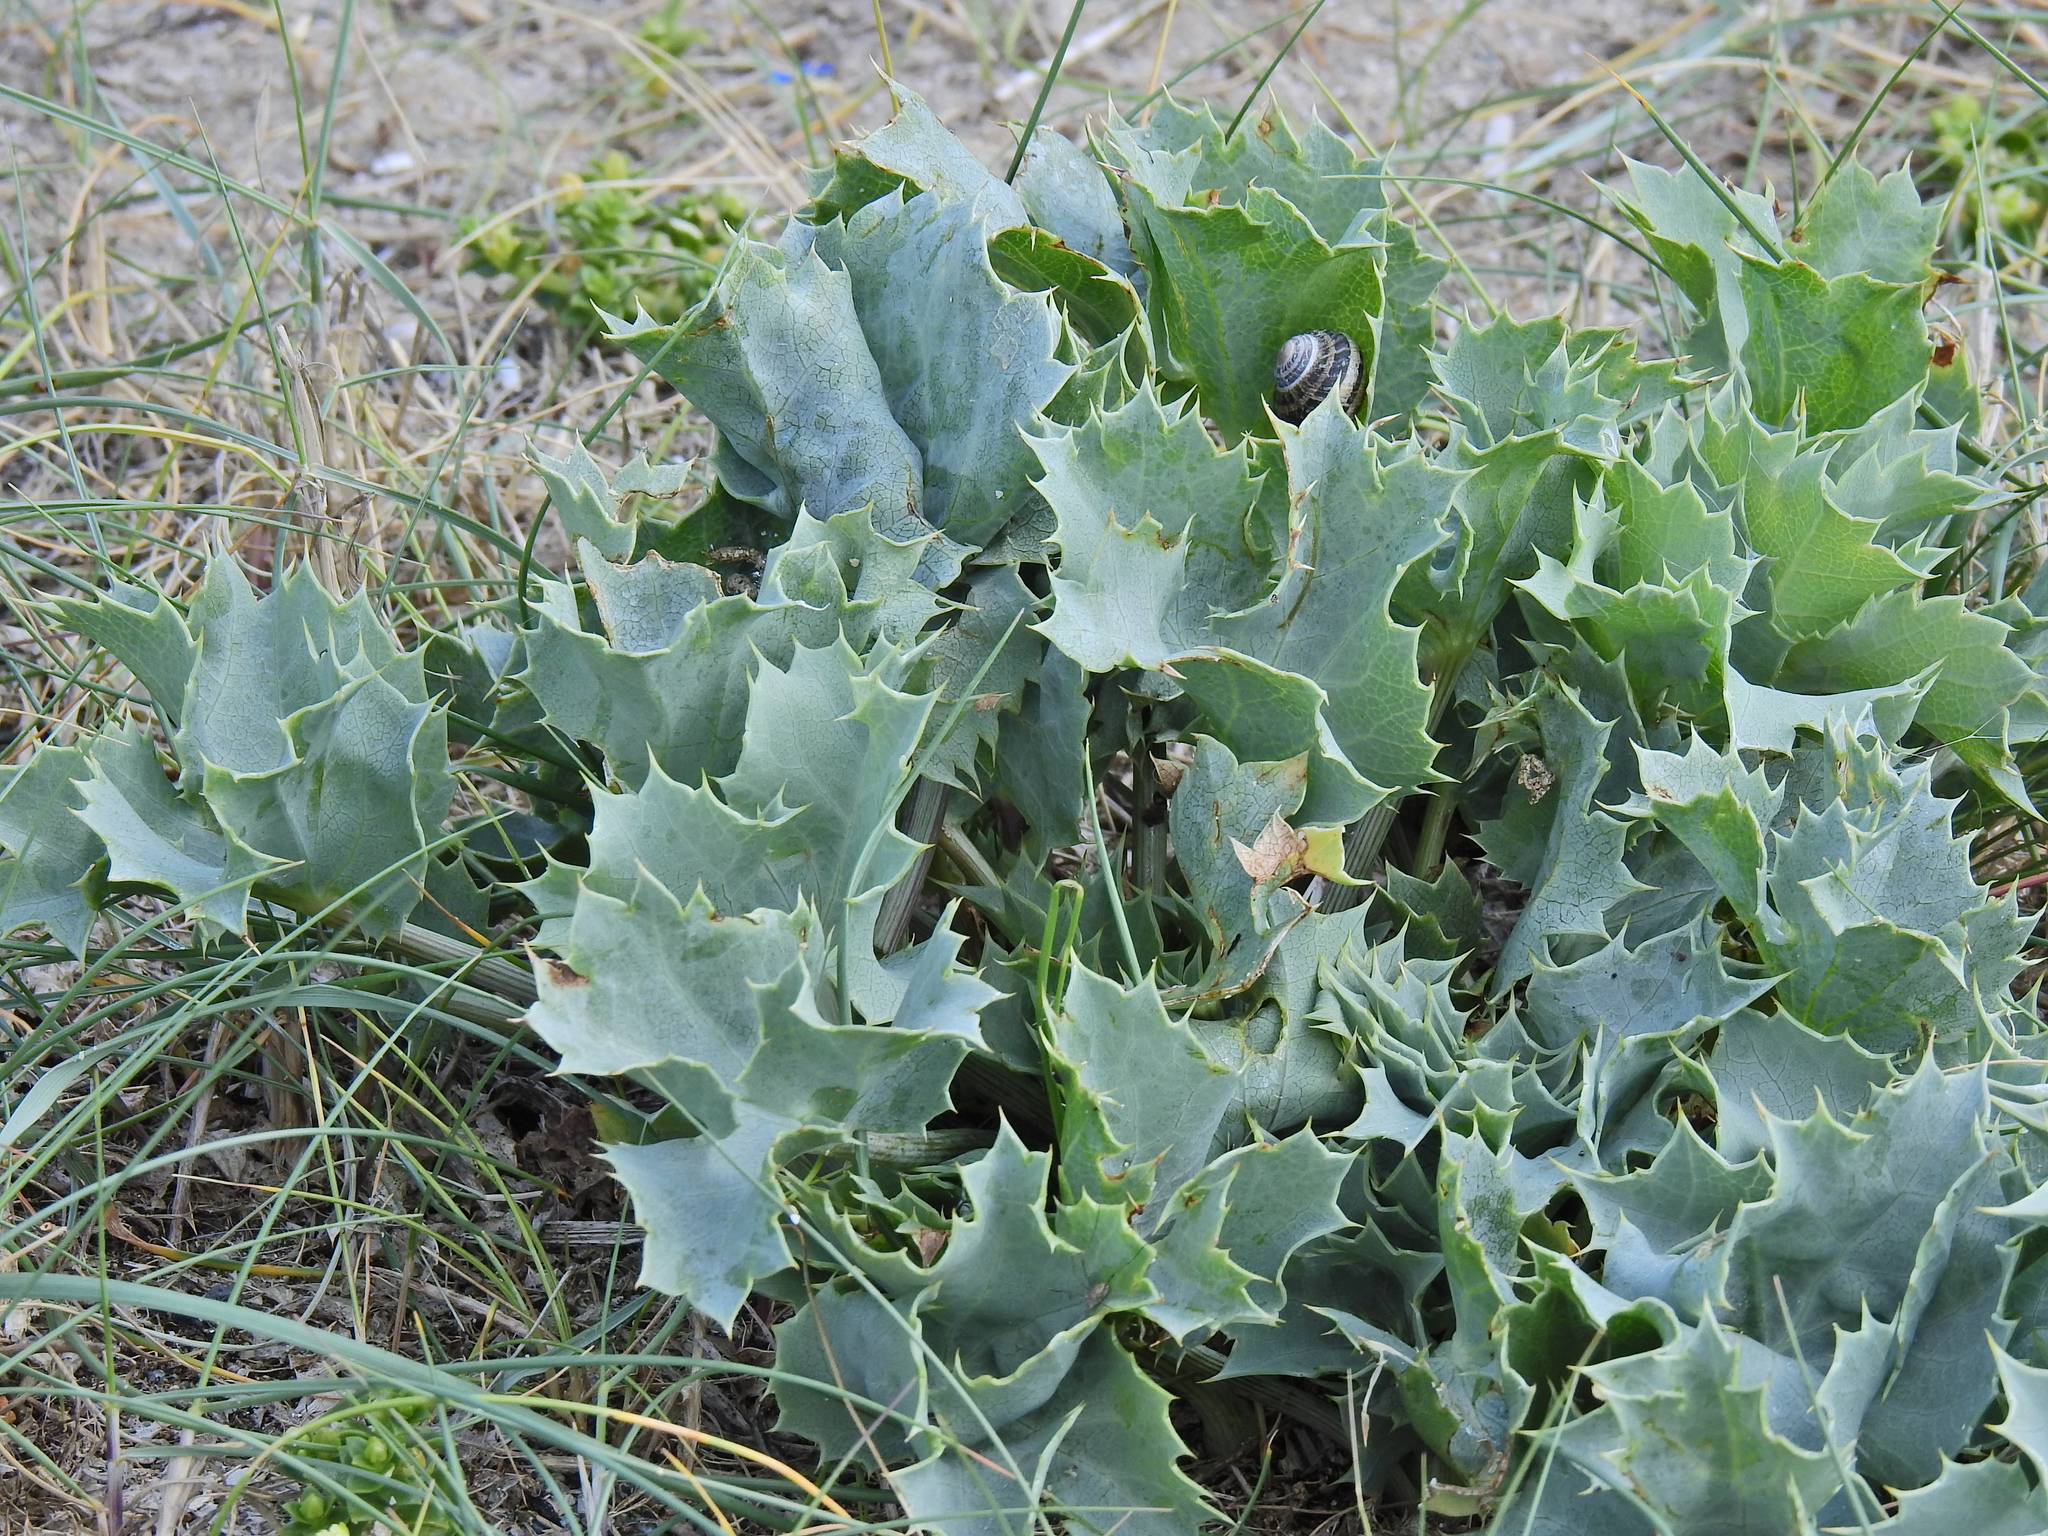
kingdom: Plantae
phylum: Tracheophyta
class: Magnoliopsida
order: Apiales
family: Apiaceae
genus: Eryngium
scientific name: Eryngium maritimum
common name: Sea-holly
